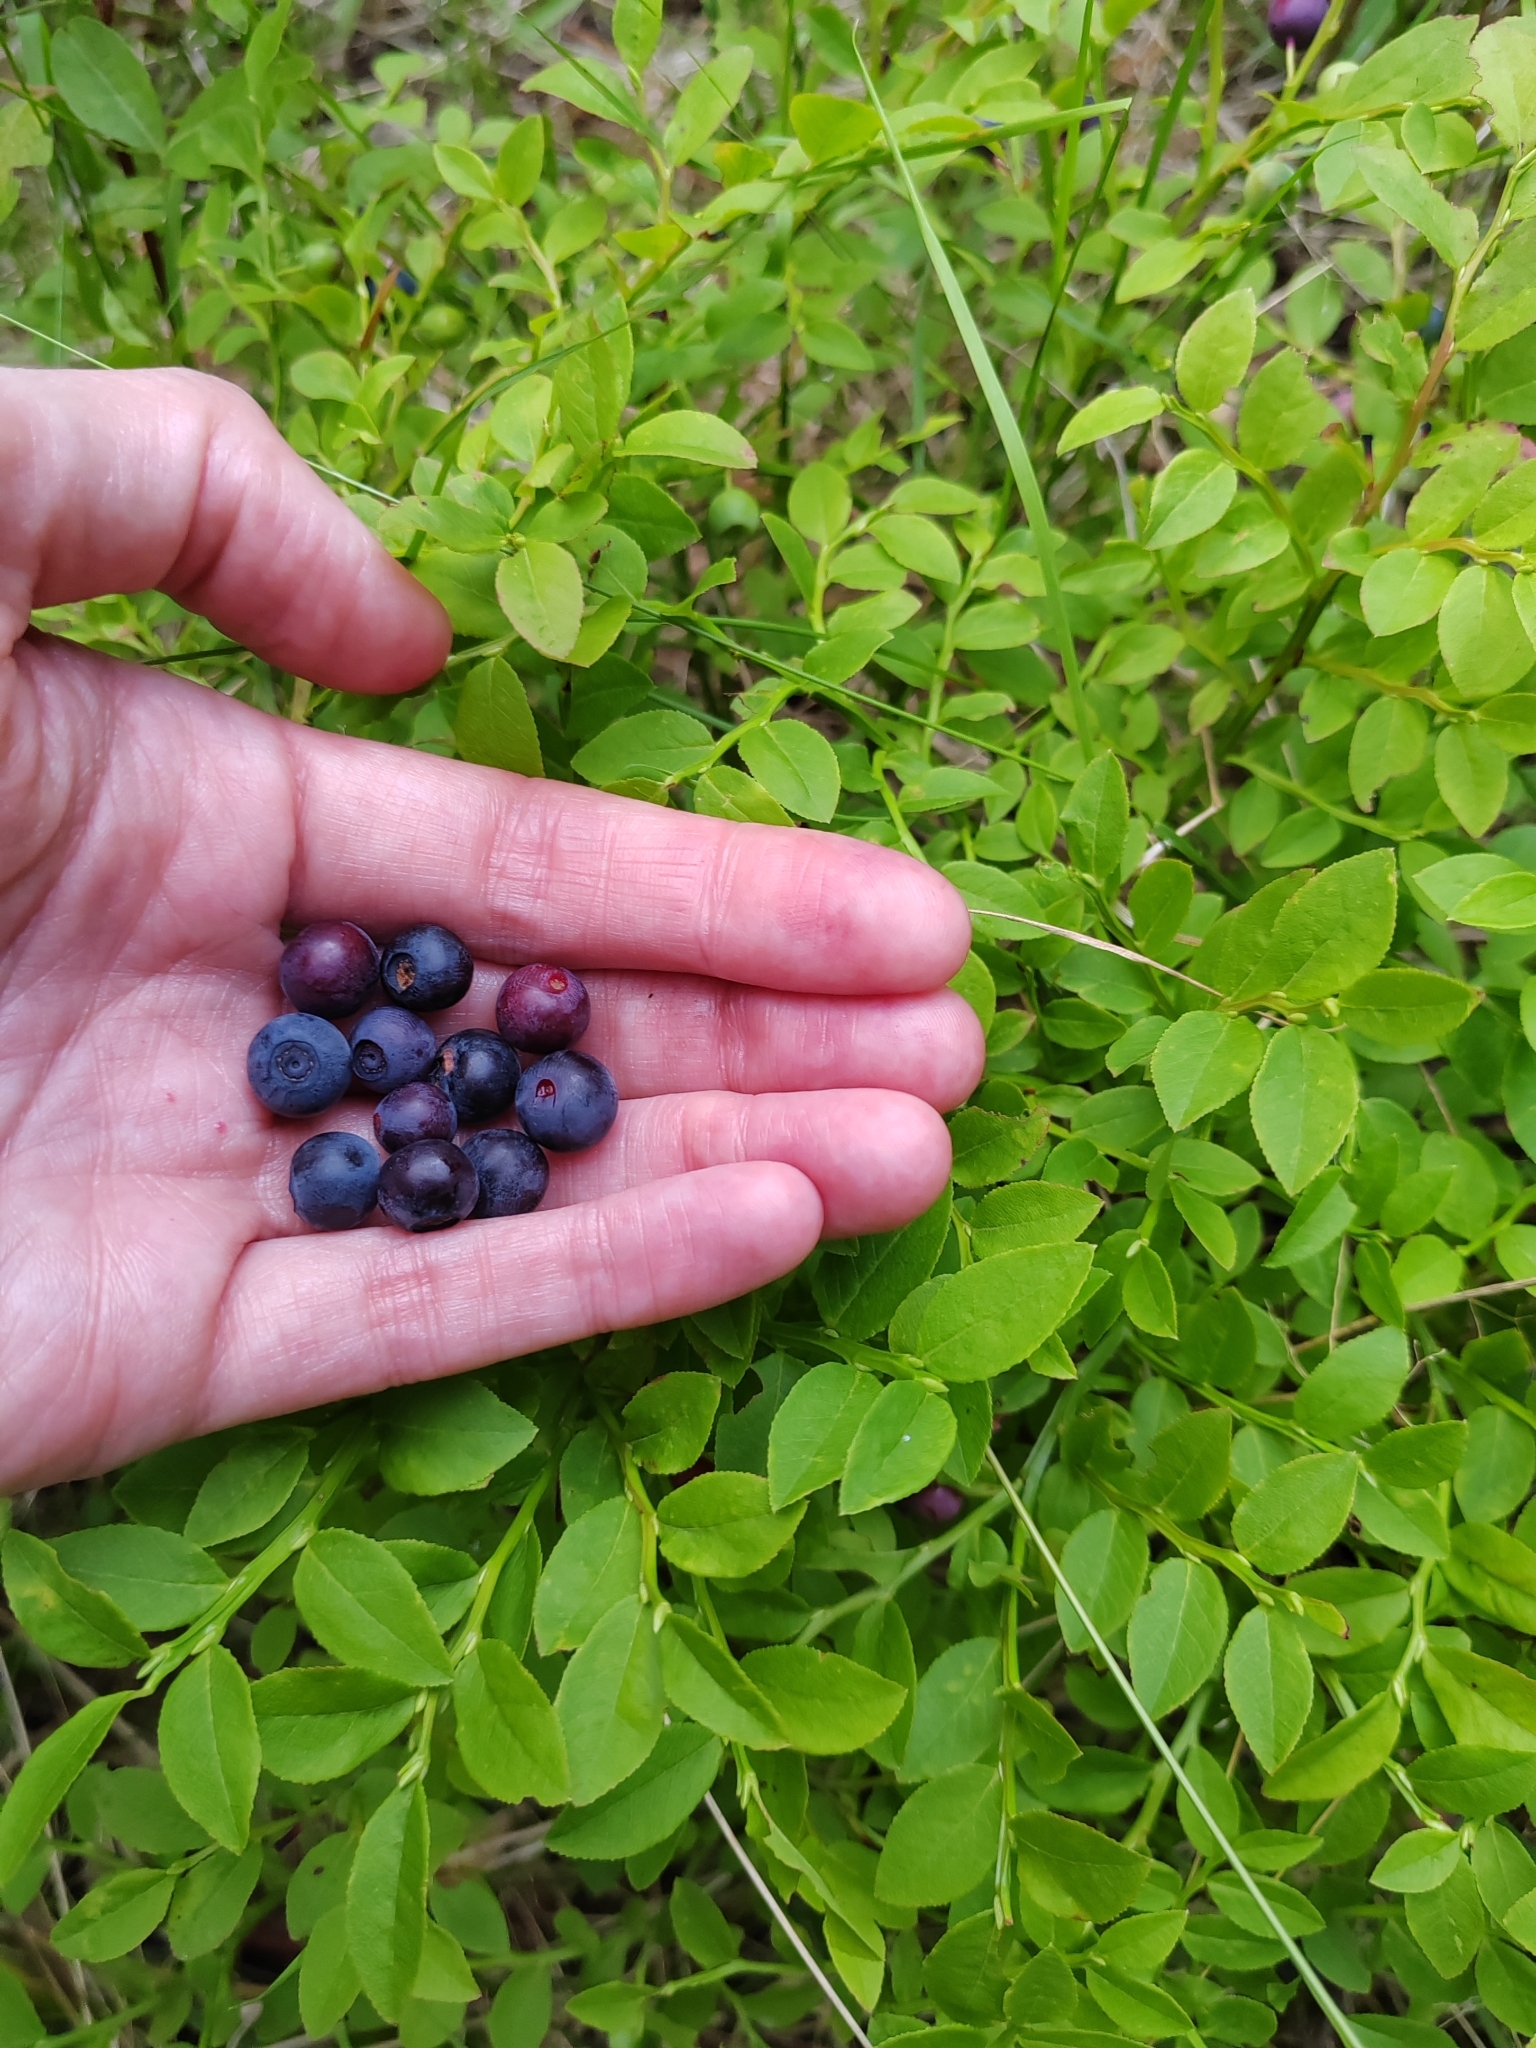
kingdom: Plantae
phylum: Tracheophyta
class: Magnoliopsida
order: Ericales
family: Ericaceae
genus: Vaccinium
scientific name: Vaccinium myrtillus
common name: Bilberry
